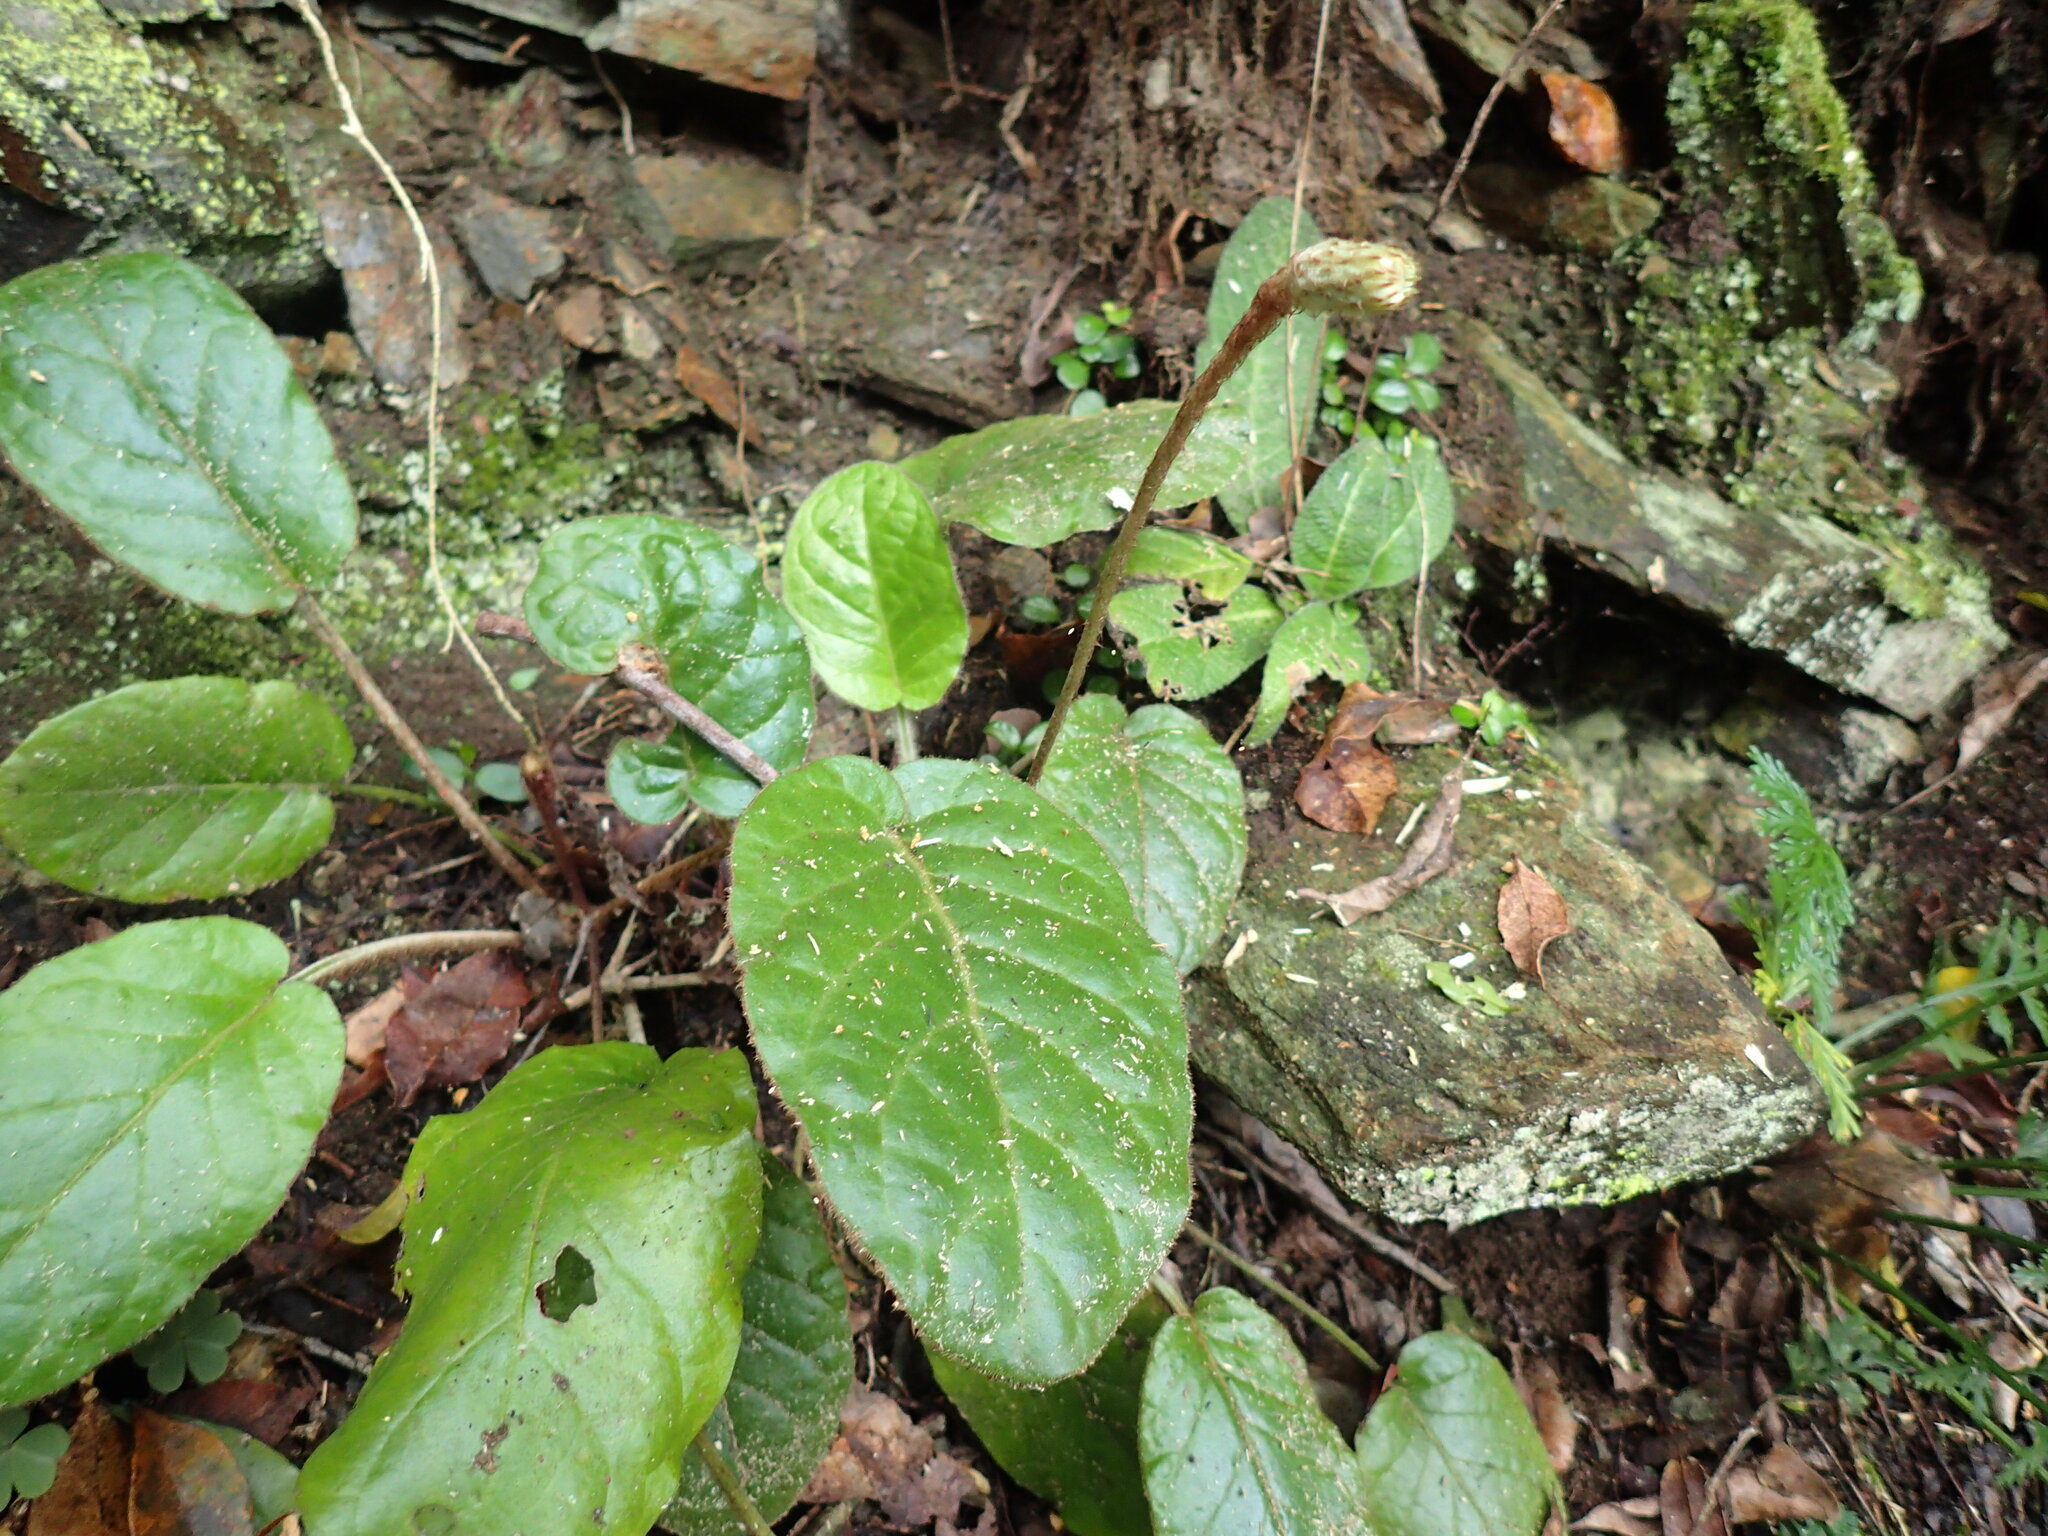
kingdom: Plantae
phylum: Tracheophyta
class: Magnoliopsida
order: Asterales
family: Asteraceae
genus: Piloselloides
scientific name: Piloselloides cordata
